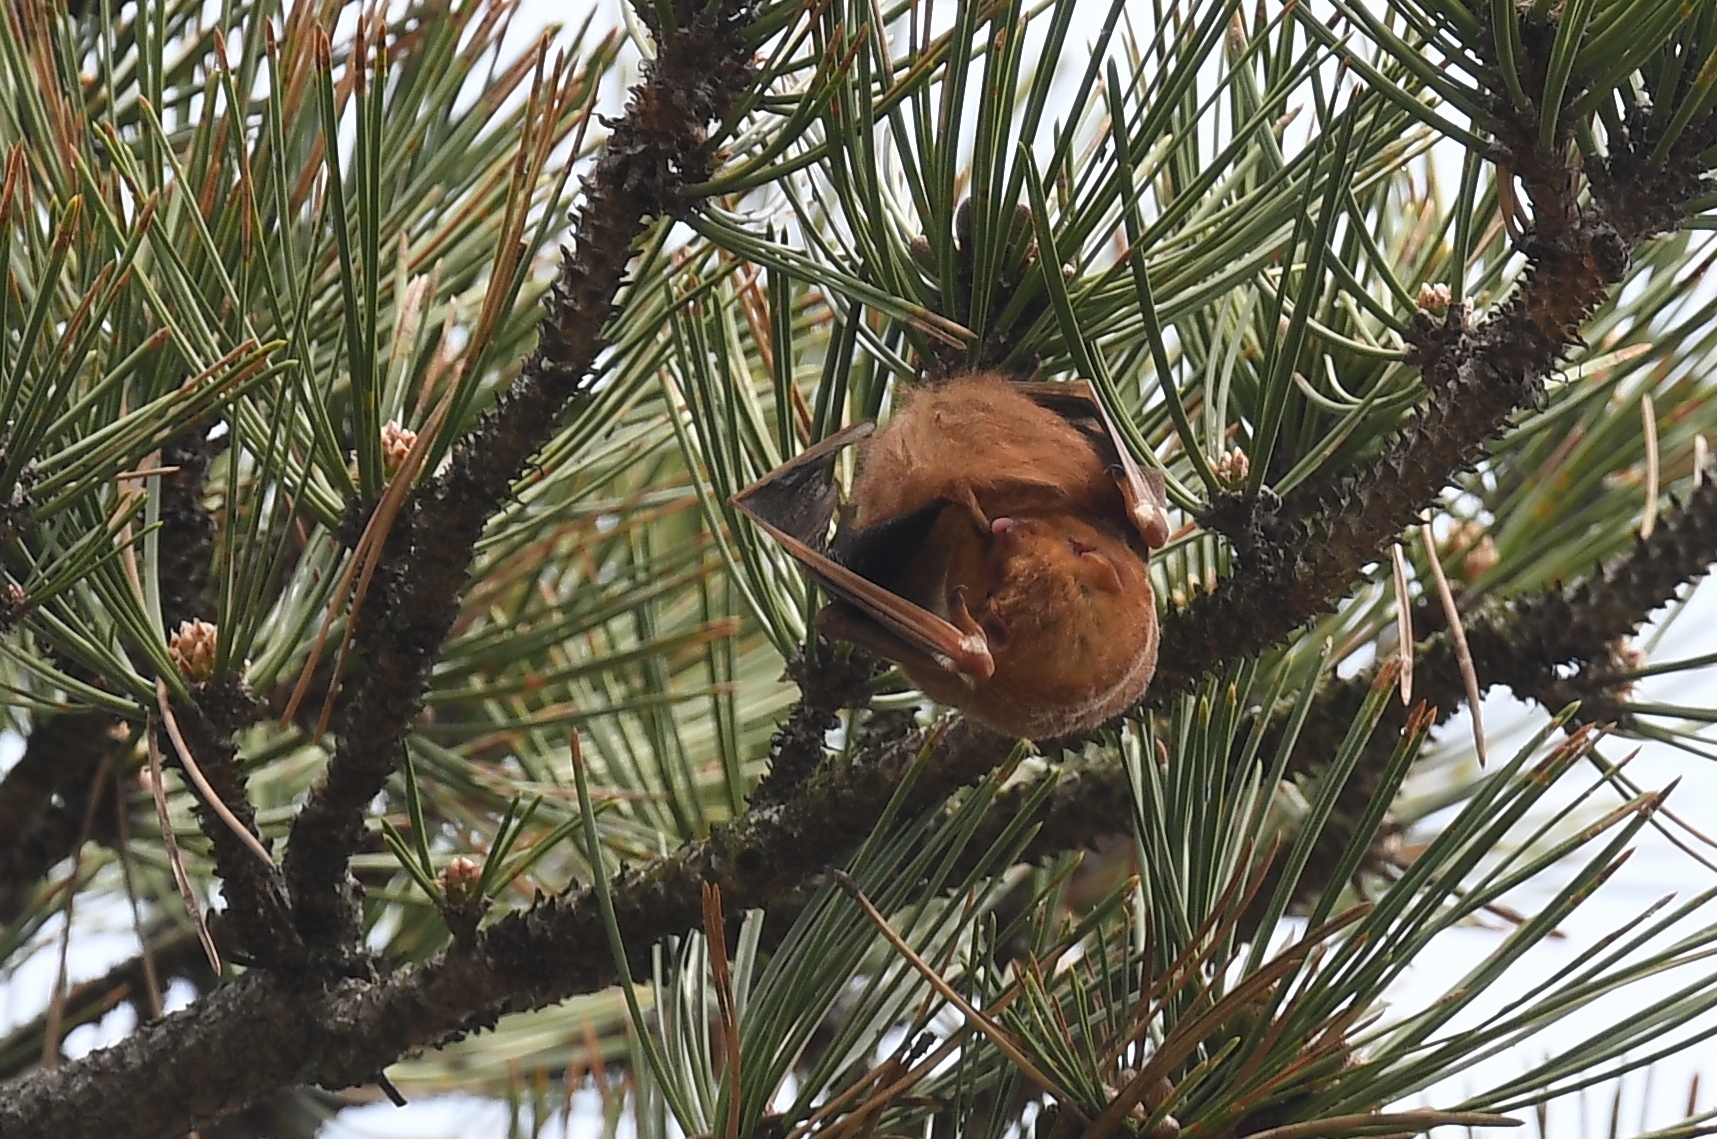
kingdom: Animalia
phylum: Chordata
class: Mammalia
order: Chiroptera
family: Vespertilionidae
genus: Lasiurus
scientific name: Lasiurus borealis
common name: Eastern red bat
